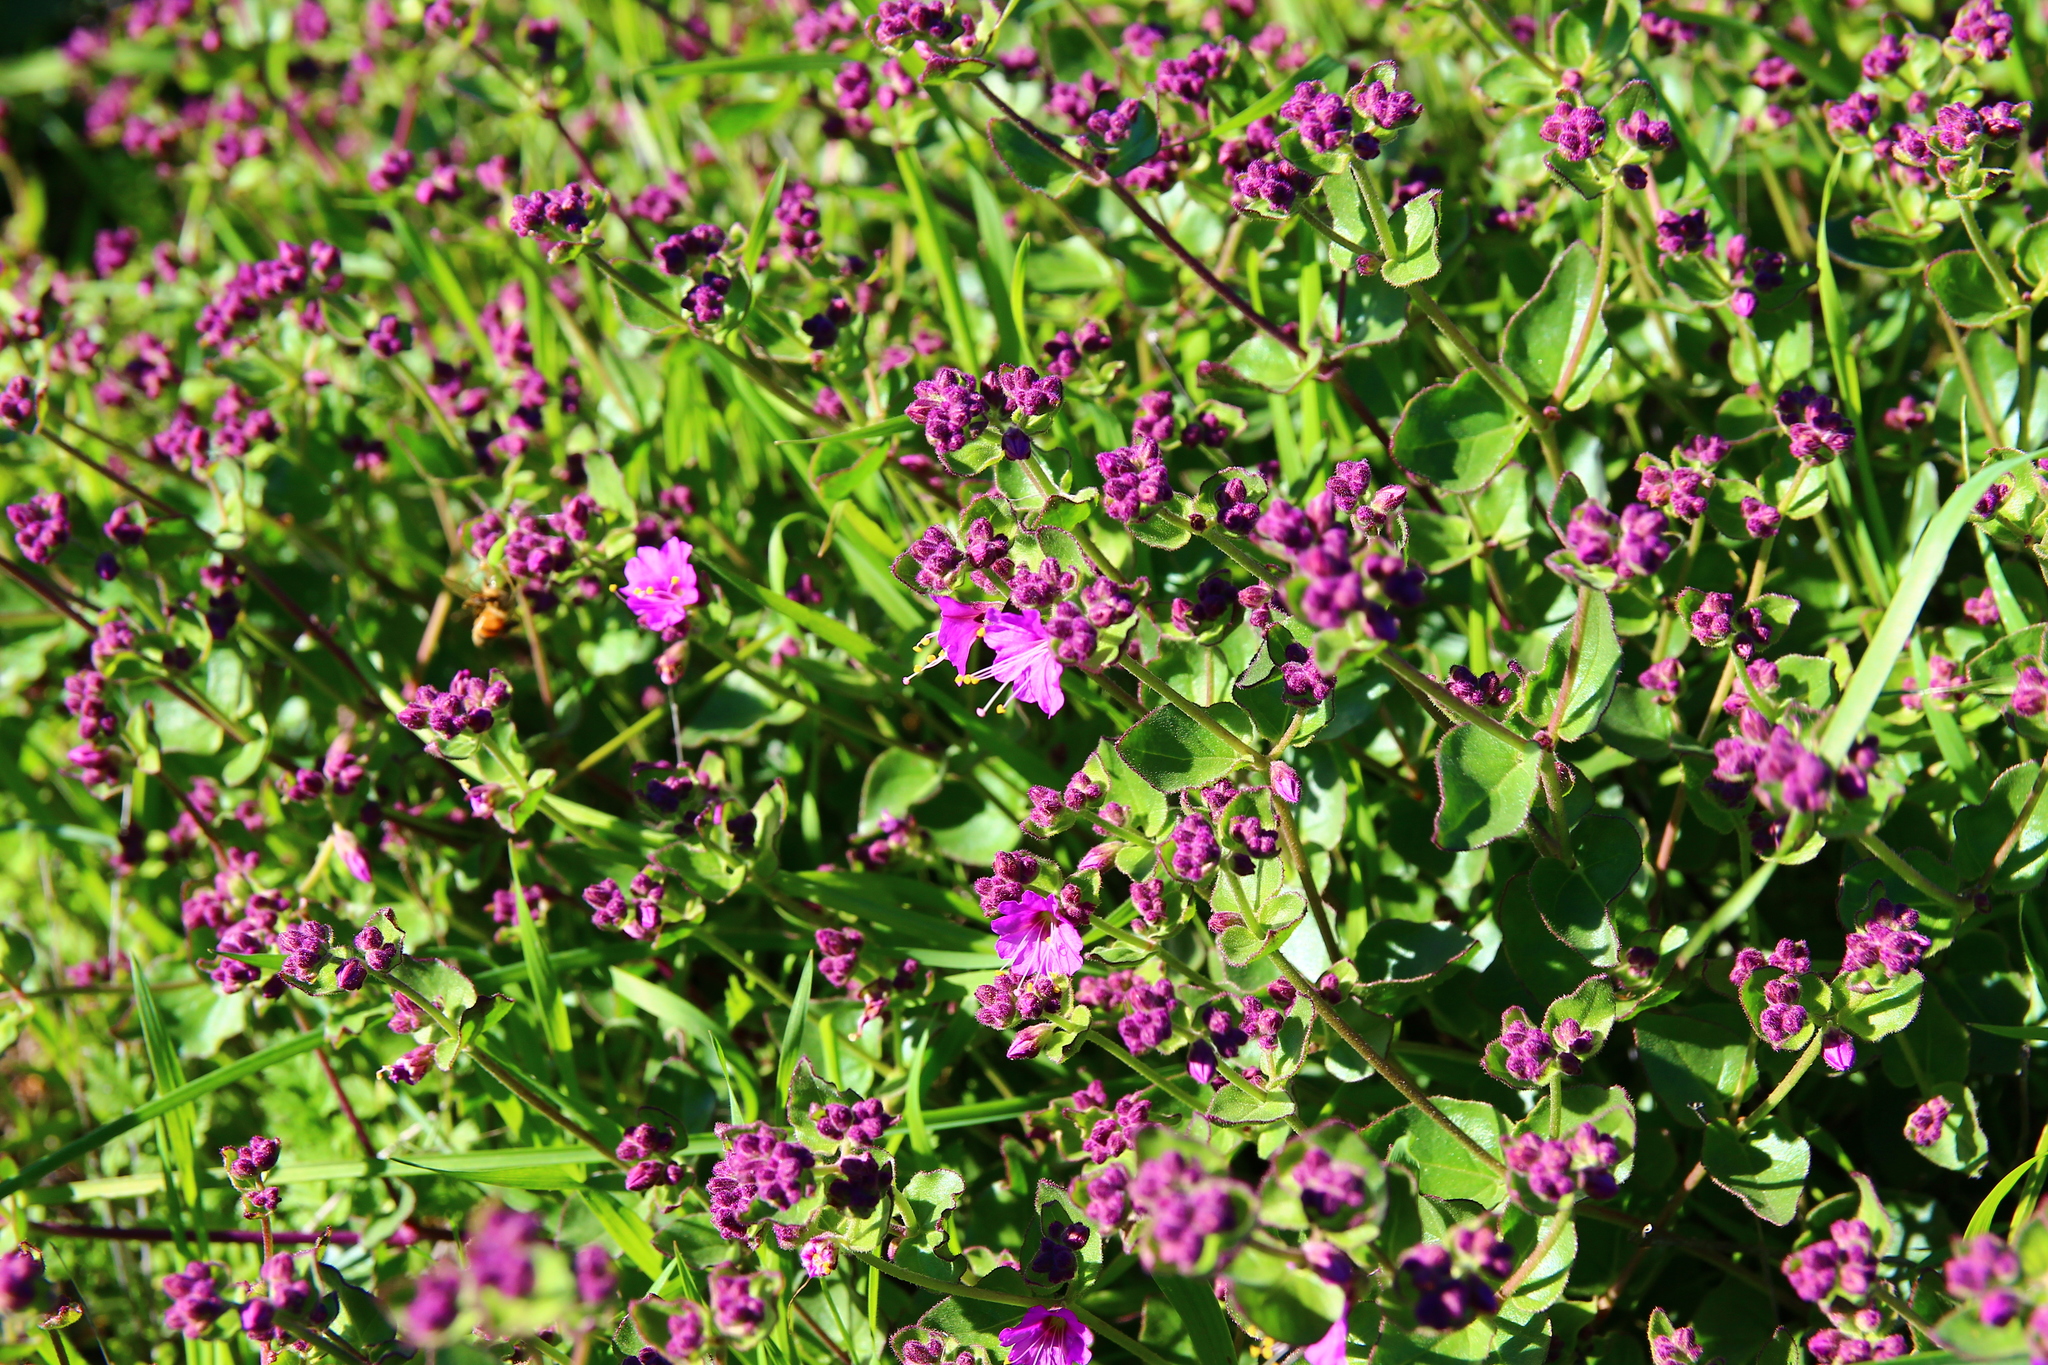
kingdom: Plantae
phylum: Tracheophyta
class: Magnoliopsida
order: Caryophyllales
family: Nyctaginaceae
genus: Mirabilis
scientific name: Mirabilis laevis
